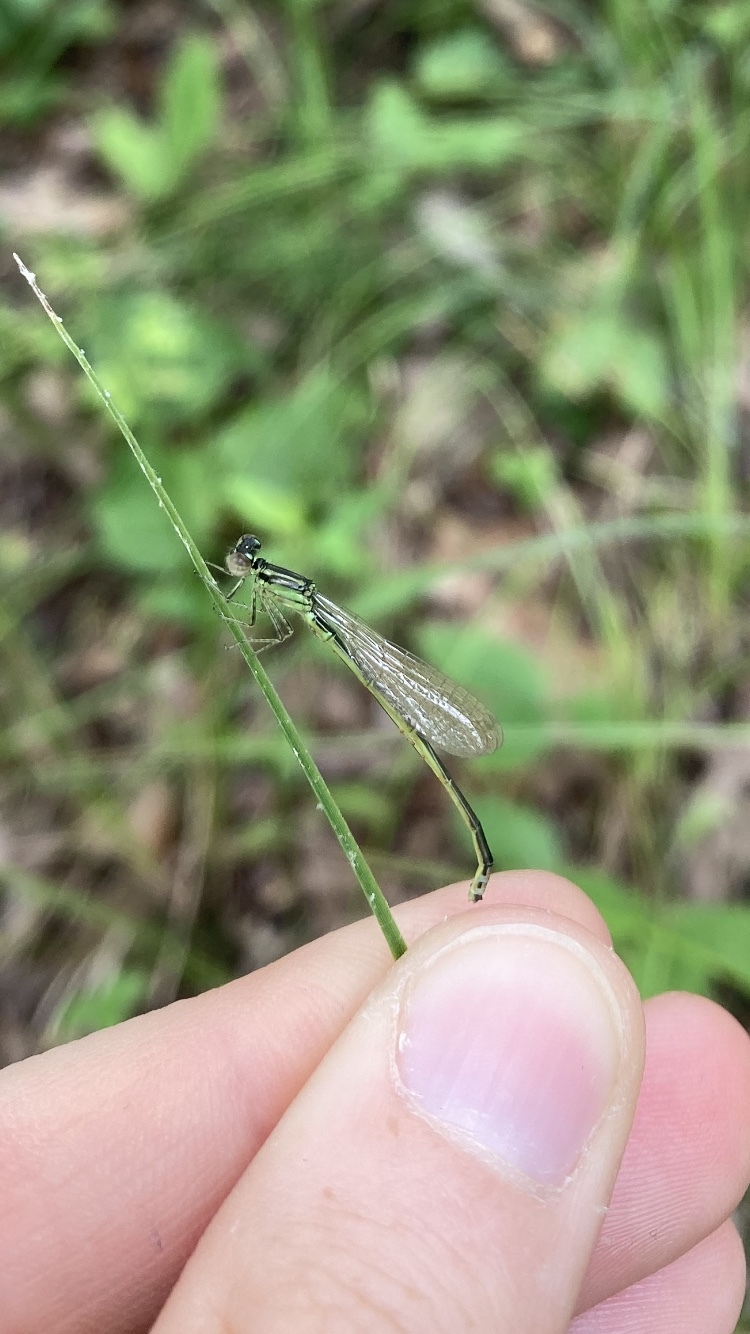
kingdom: Animalia
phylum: Arthropoda
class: Insecta
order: Odonata
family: Coenagrionidae
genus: Ischnura
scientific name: Ischnura verticalis
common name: Eastern forktail
